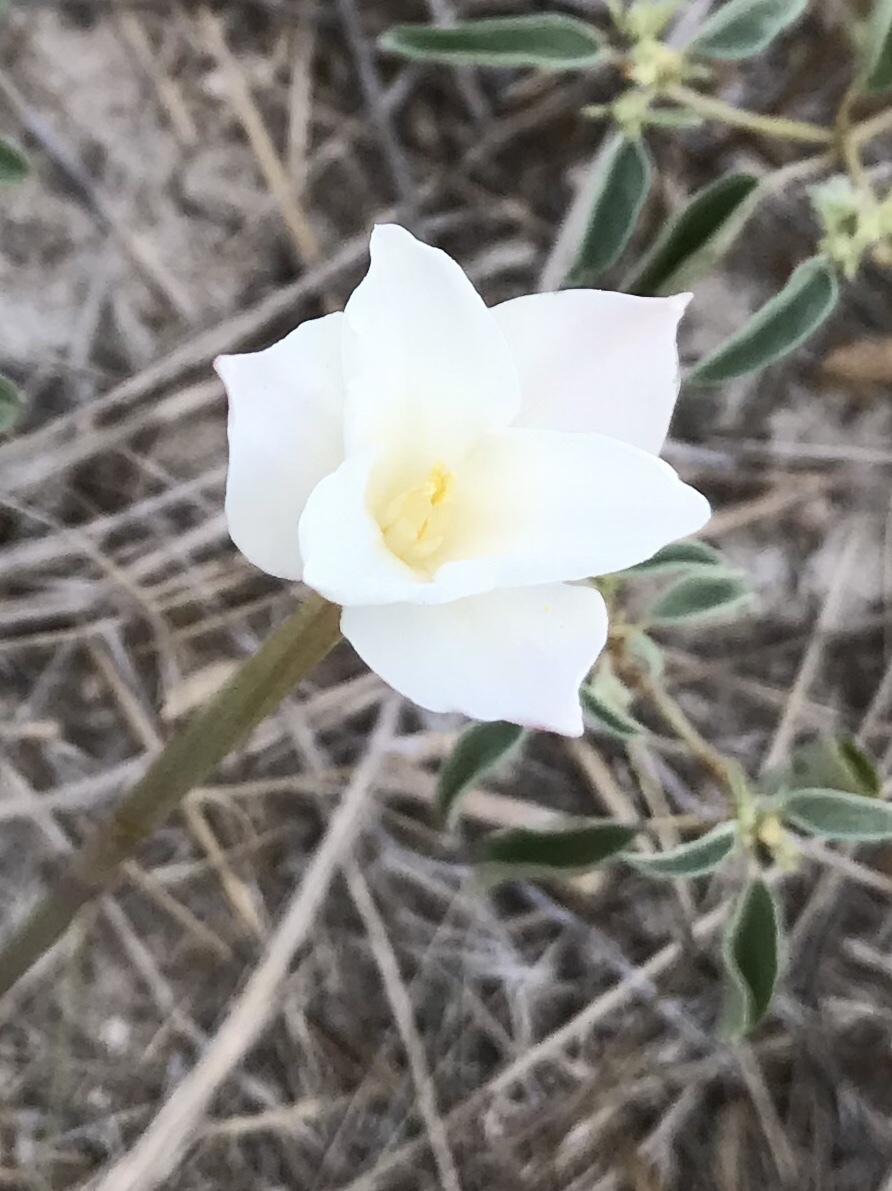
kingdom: Plantae
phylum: Tracheophyta
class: Liliopsida
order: Asparagales
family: Amaryllidaceae
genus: Zephyranthes
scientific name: Zephyranthes chlorosolen
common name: Evening rain-lily
